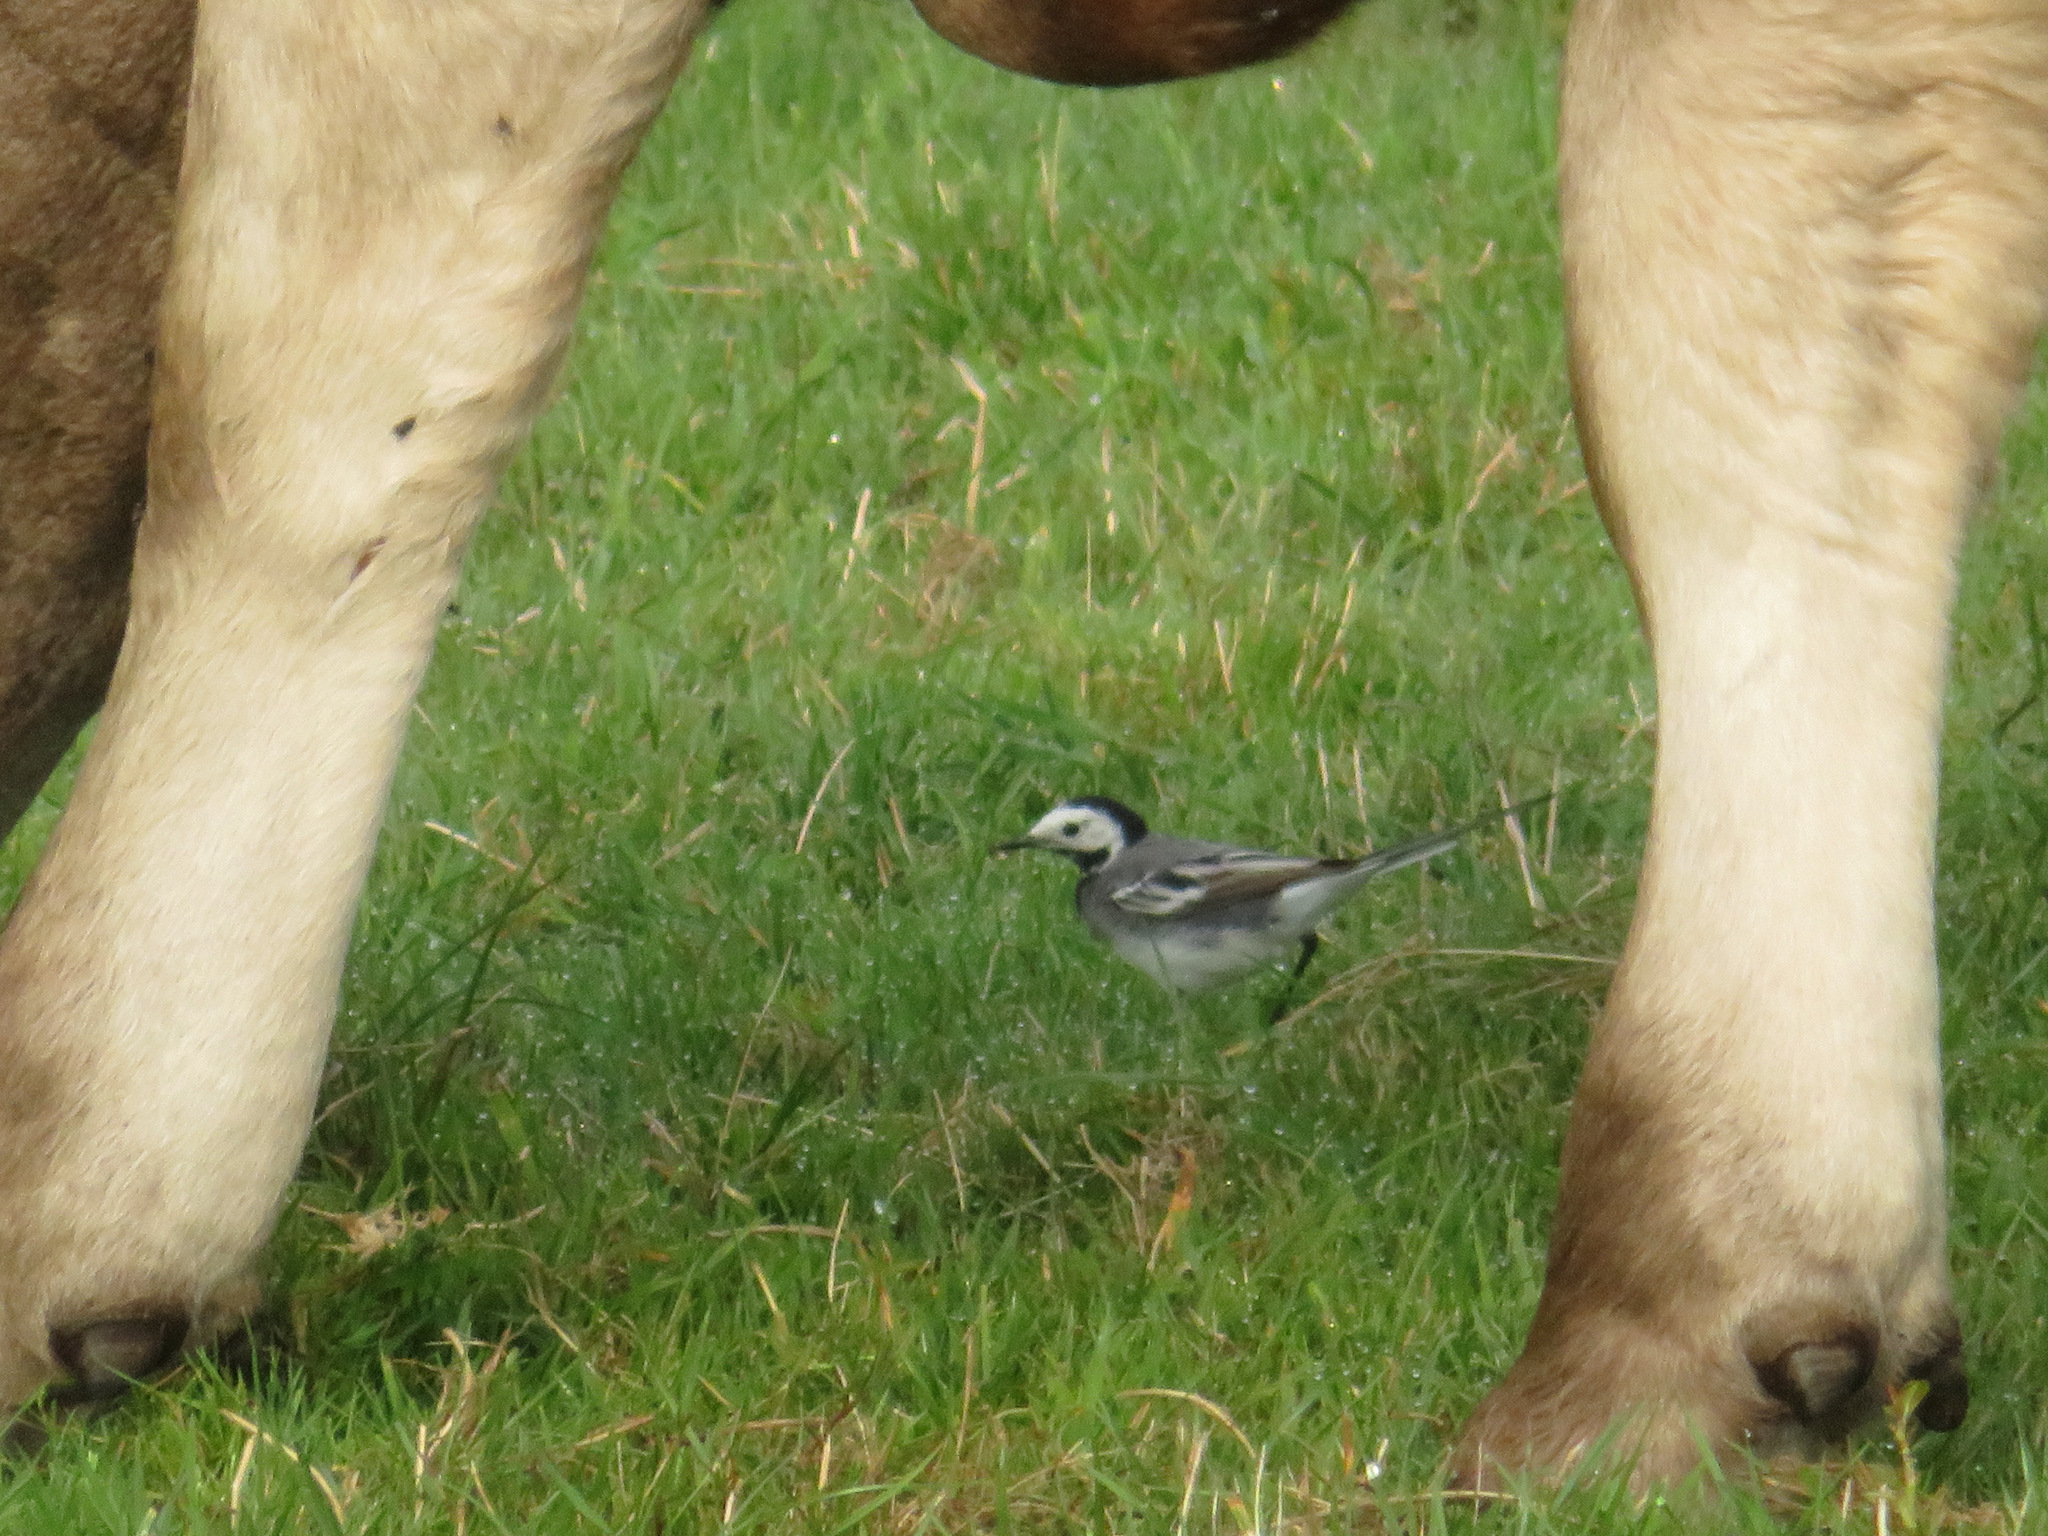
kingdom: Animalia
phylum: Chordata
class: Aves
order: Passeriformes
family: Motacillidae
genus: Motacilla
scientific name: Motacilla alba
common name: White wagtail
